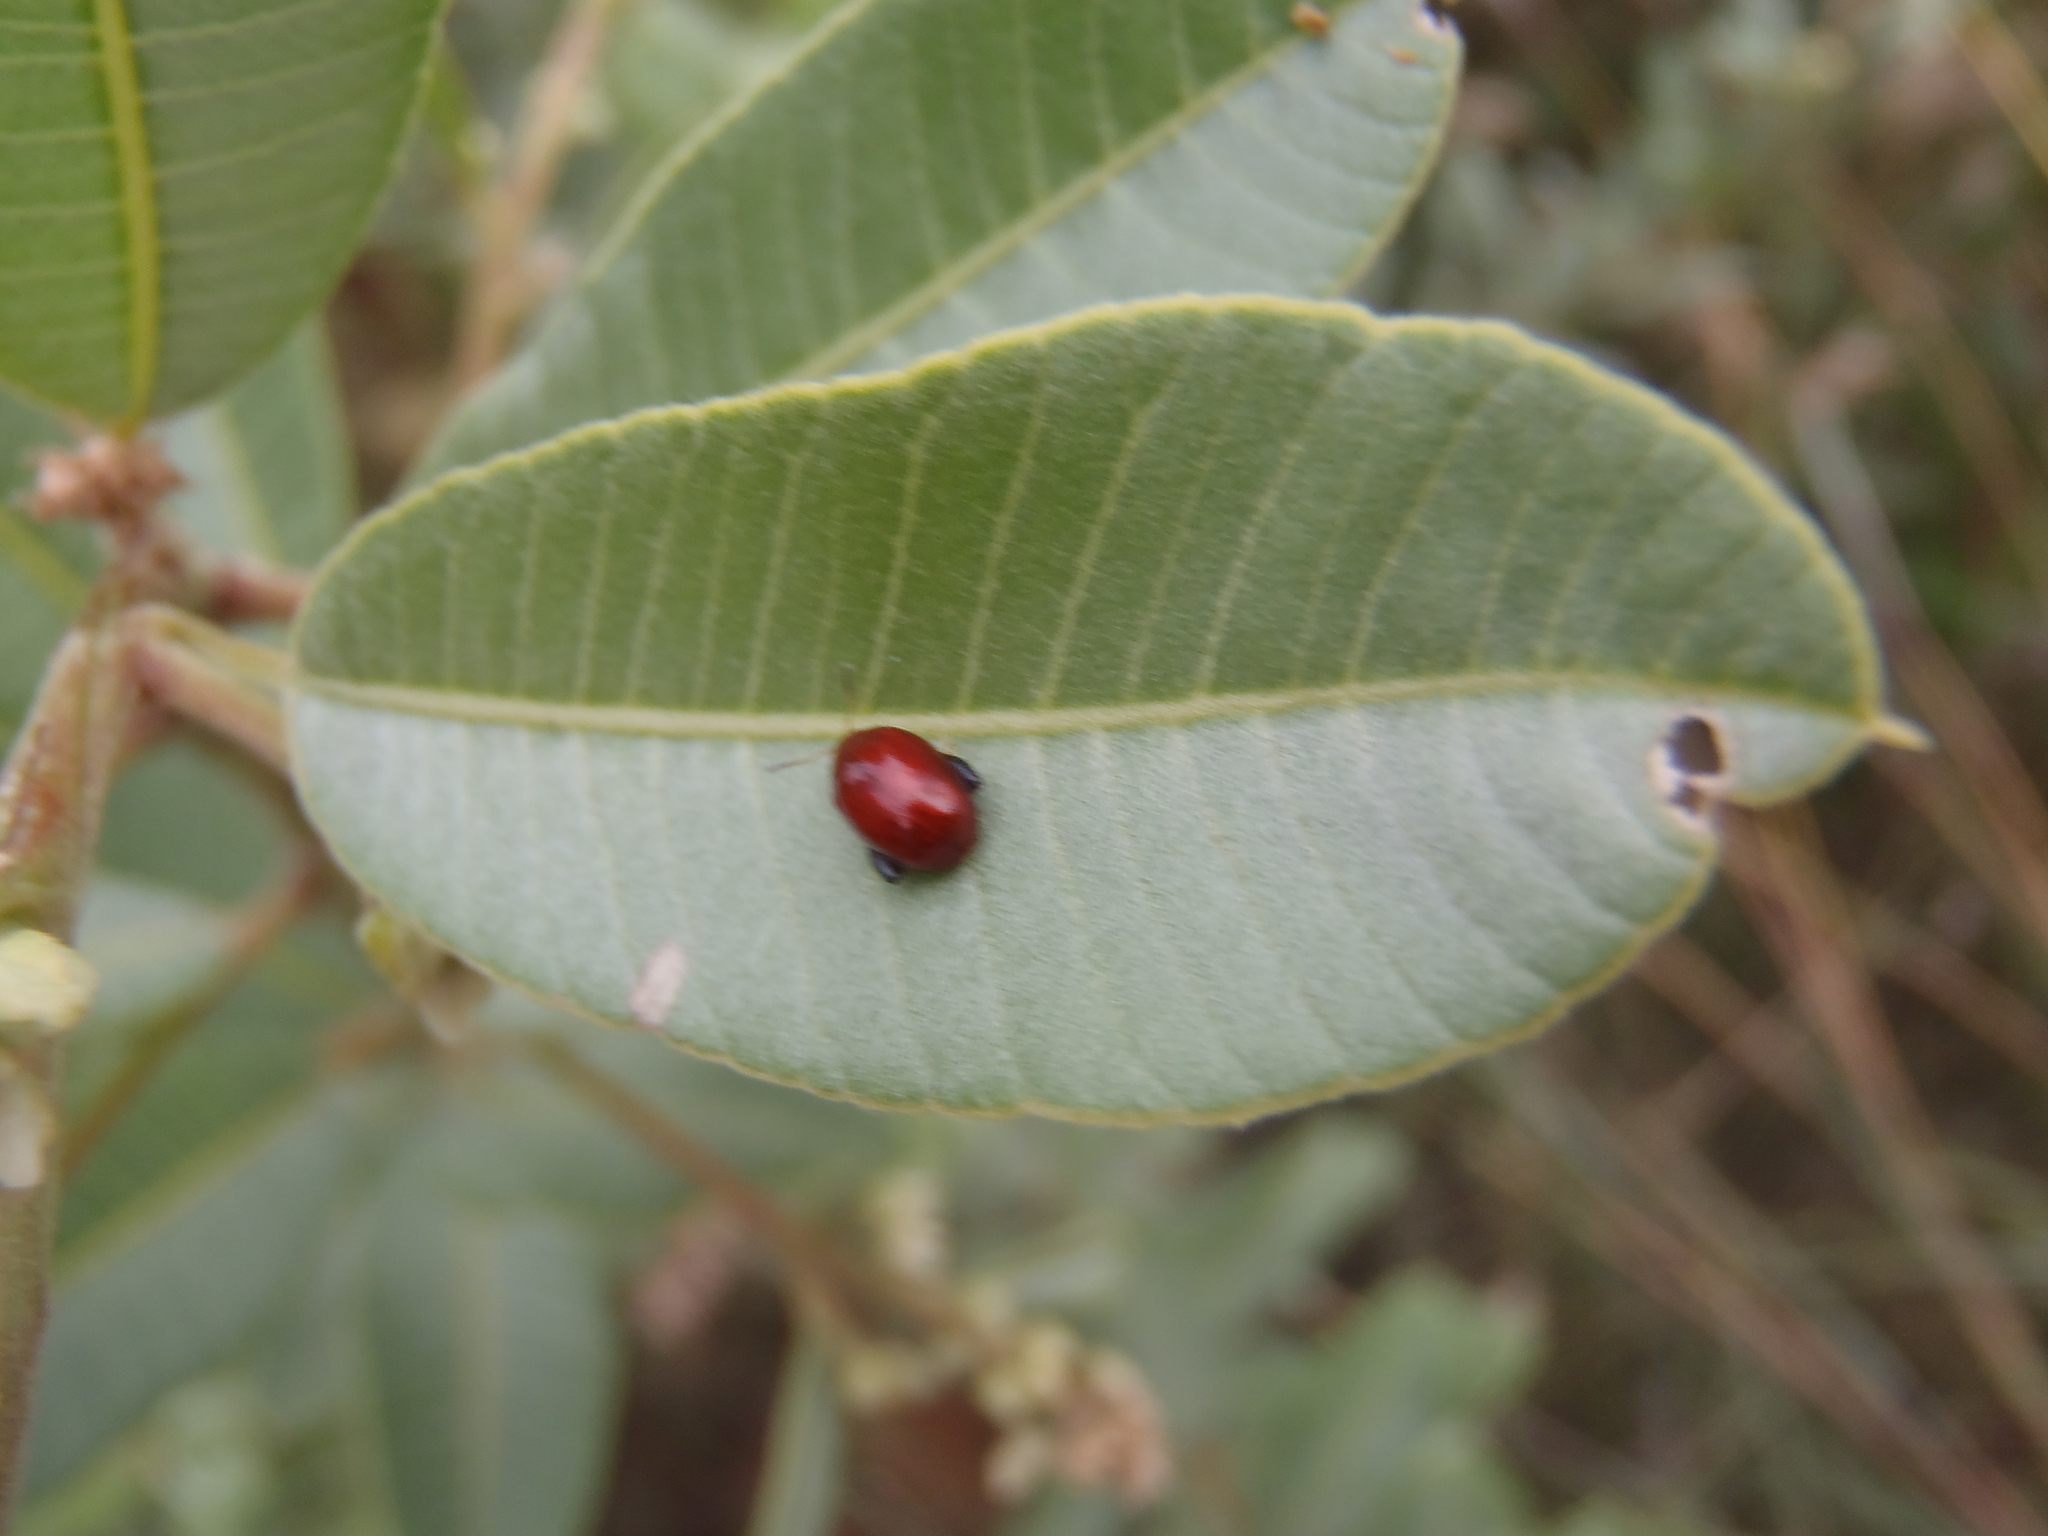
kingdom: Plantae
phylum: Tracheophyta
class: Magnoliopsida
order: Sapindales
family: Anacardiaceae
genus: Ozoroa
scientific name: Ozoroa paniculosa
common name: Bushveld ozoroa
